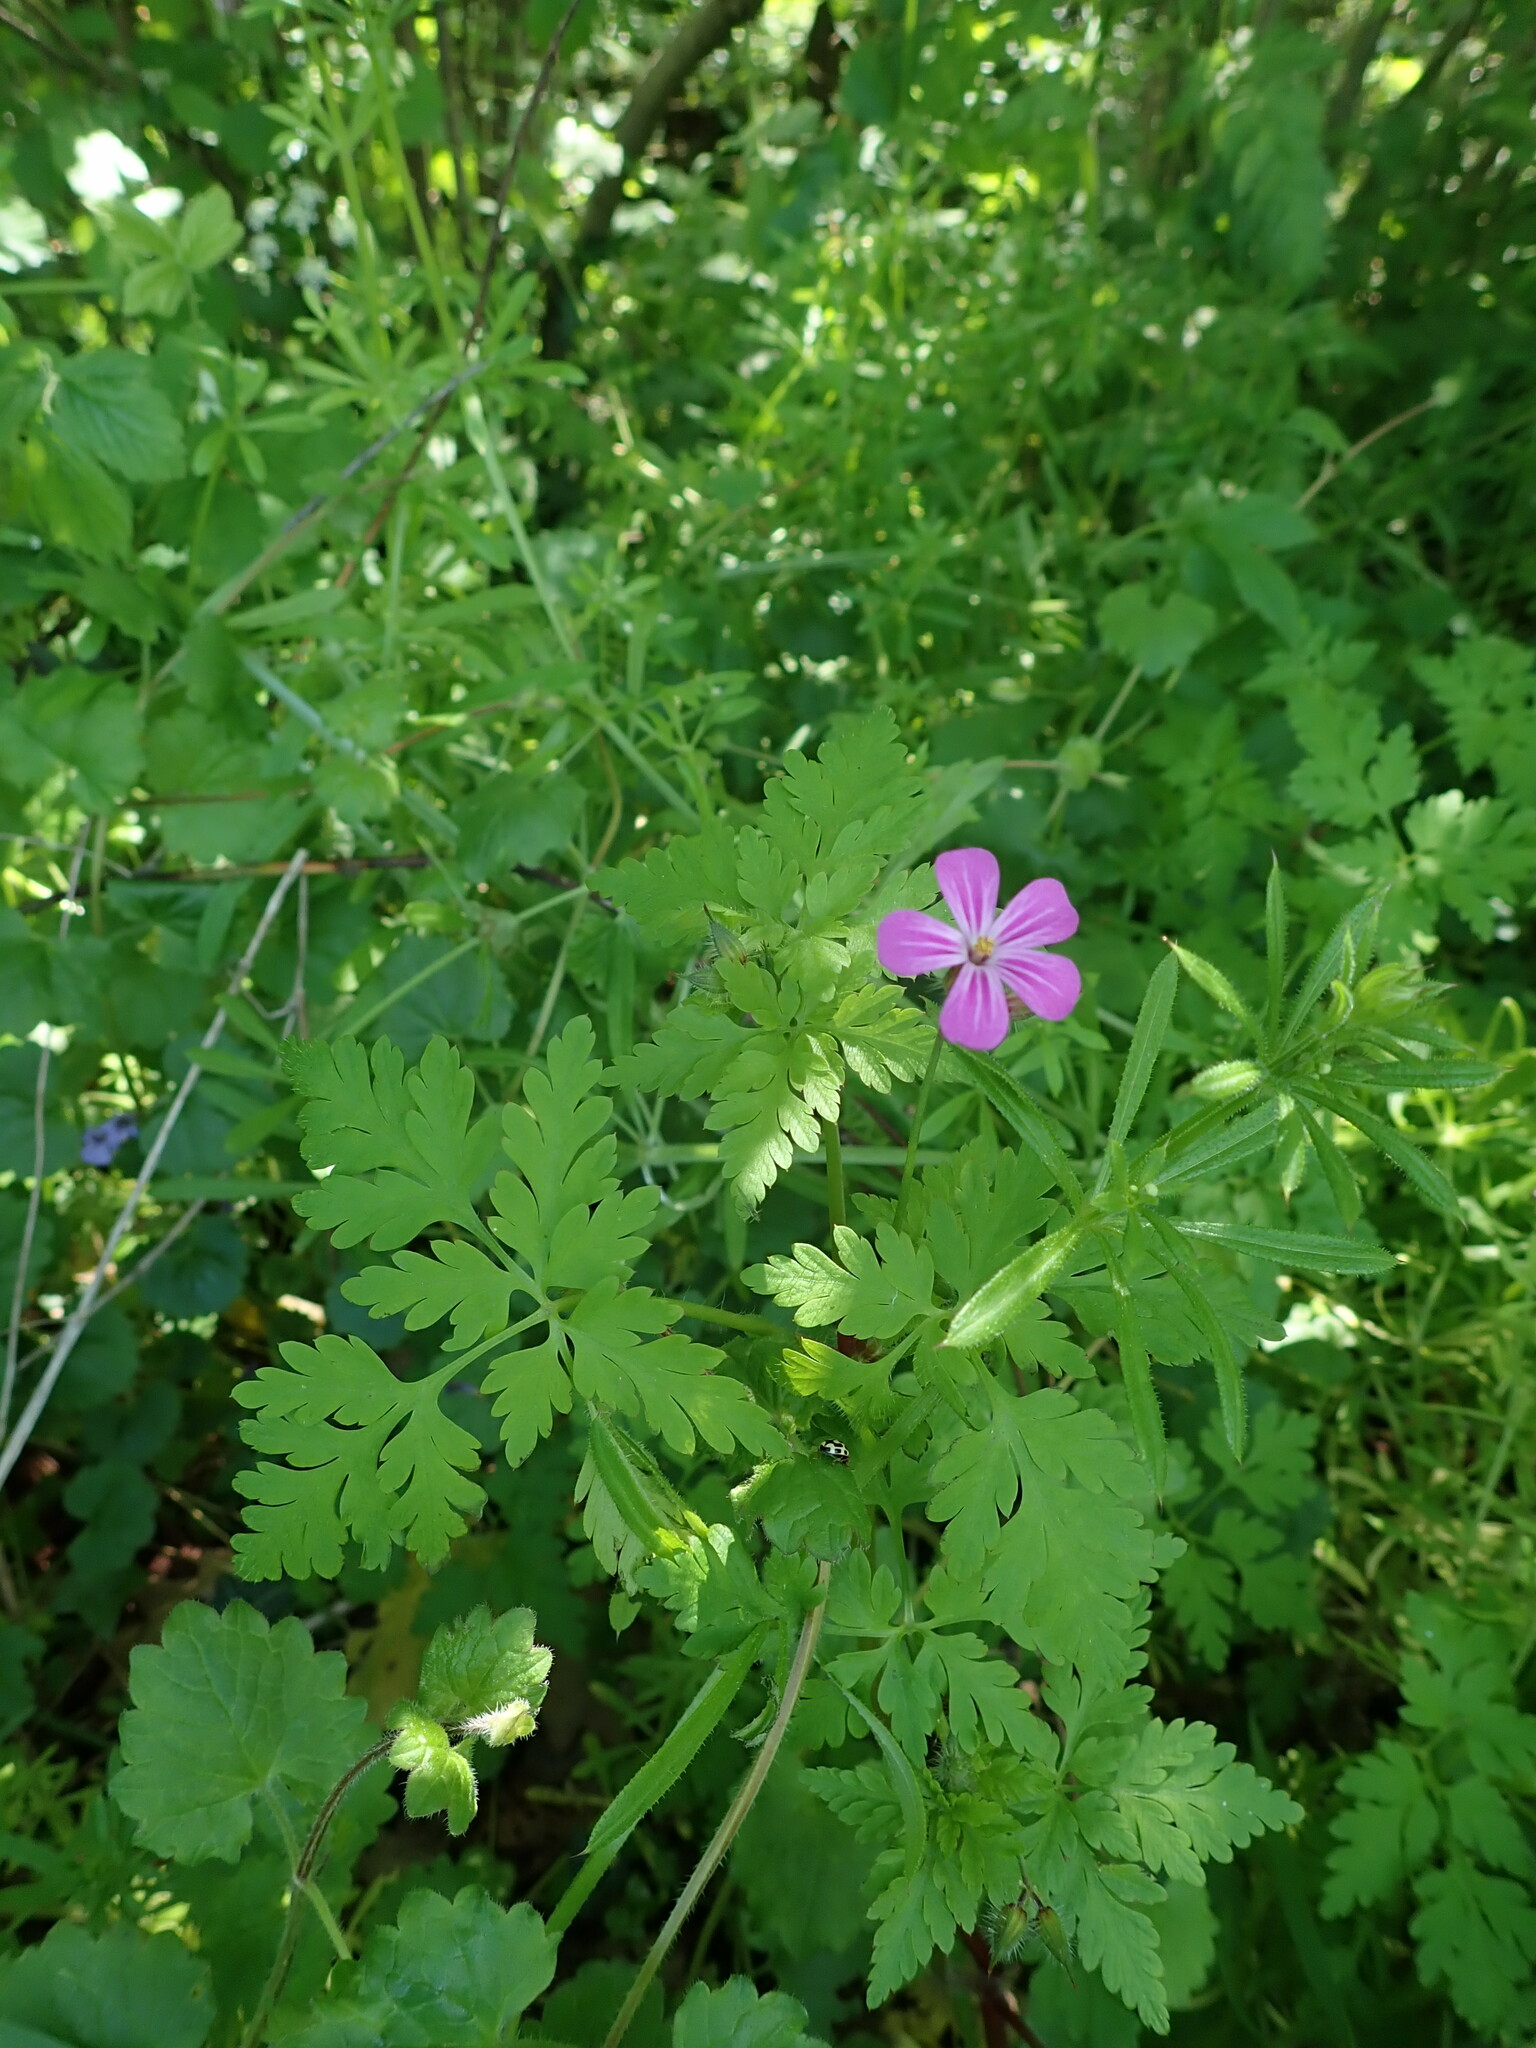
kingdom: Plantae
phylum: Tracheophyta
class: Magnoliopsida
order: Geraniales
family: Geraniaceae
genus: Geranium
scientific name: Geranium robertianum
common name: Herb-robert
